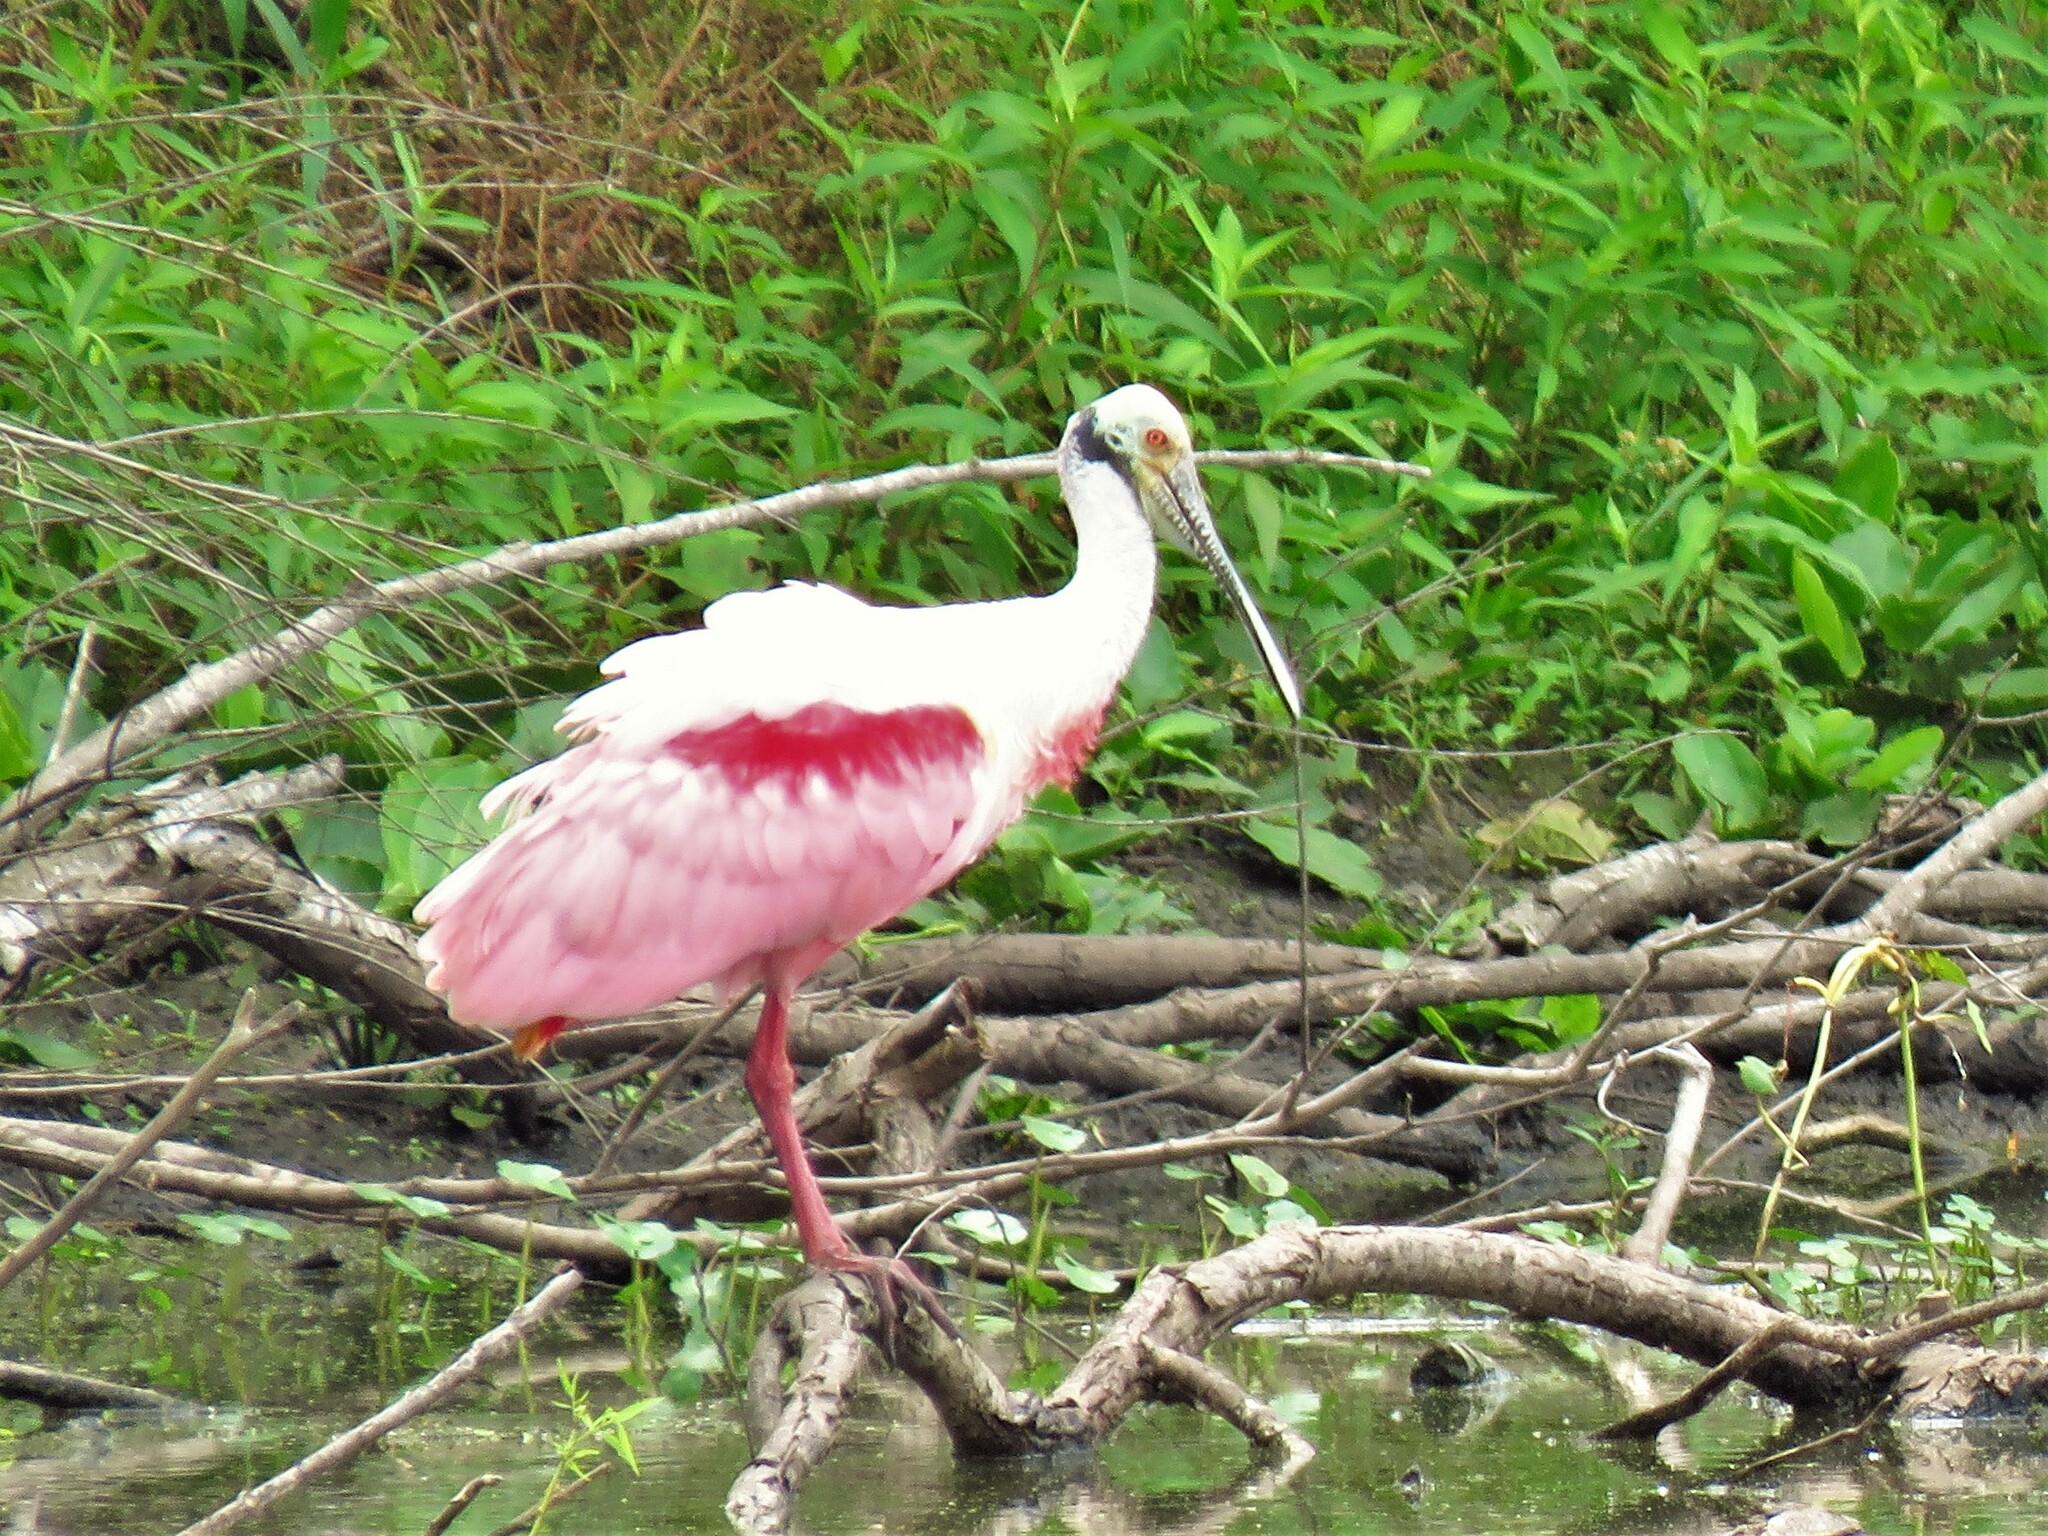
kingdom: Animalia
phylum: Chordata
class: Aves
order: Pelecaniformes
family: Threskiornithidae
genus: Platalea
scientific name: Platalea ajaja
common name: Roseate spoonbill
